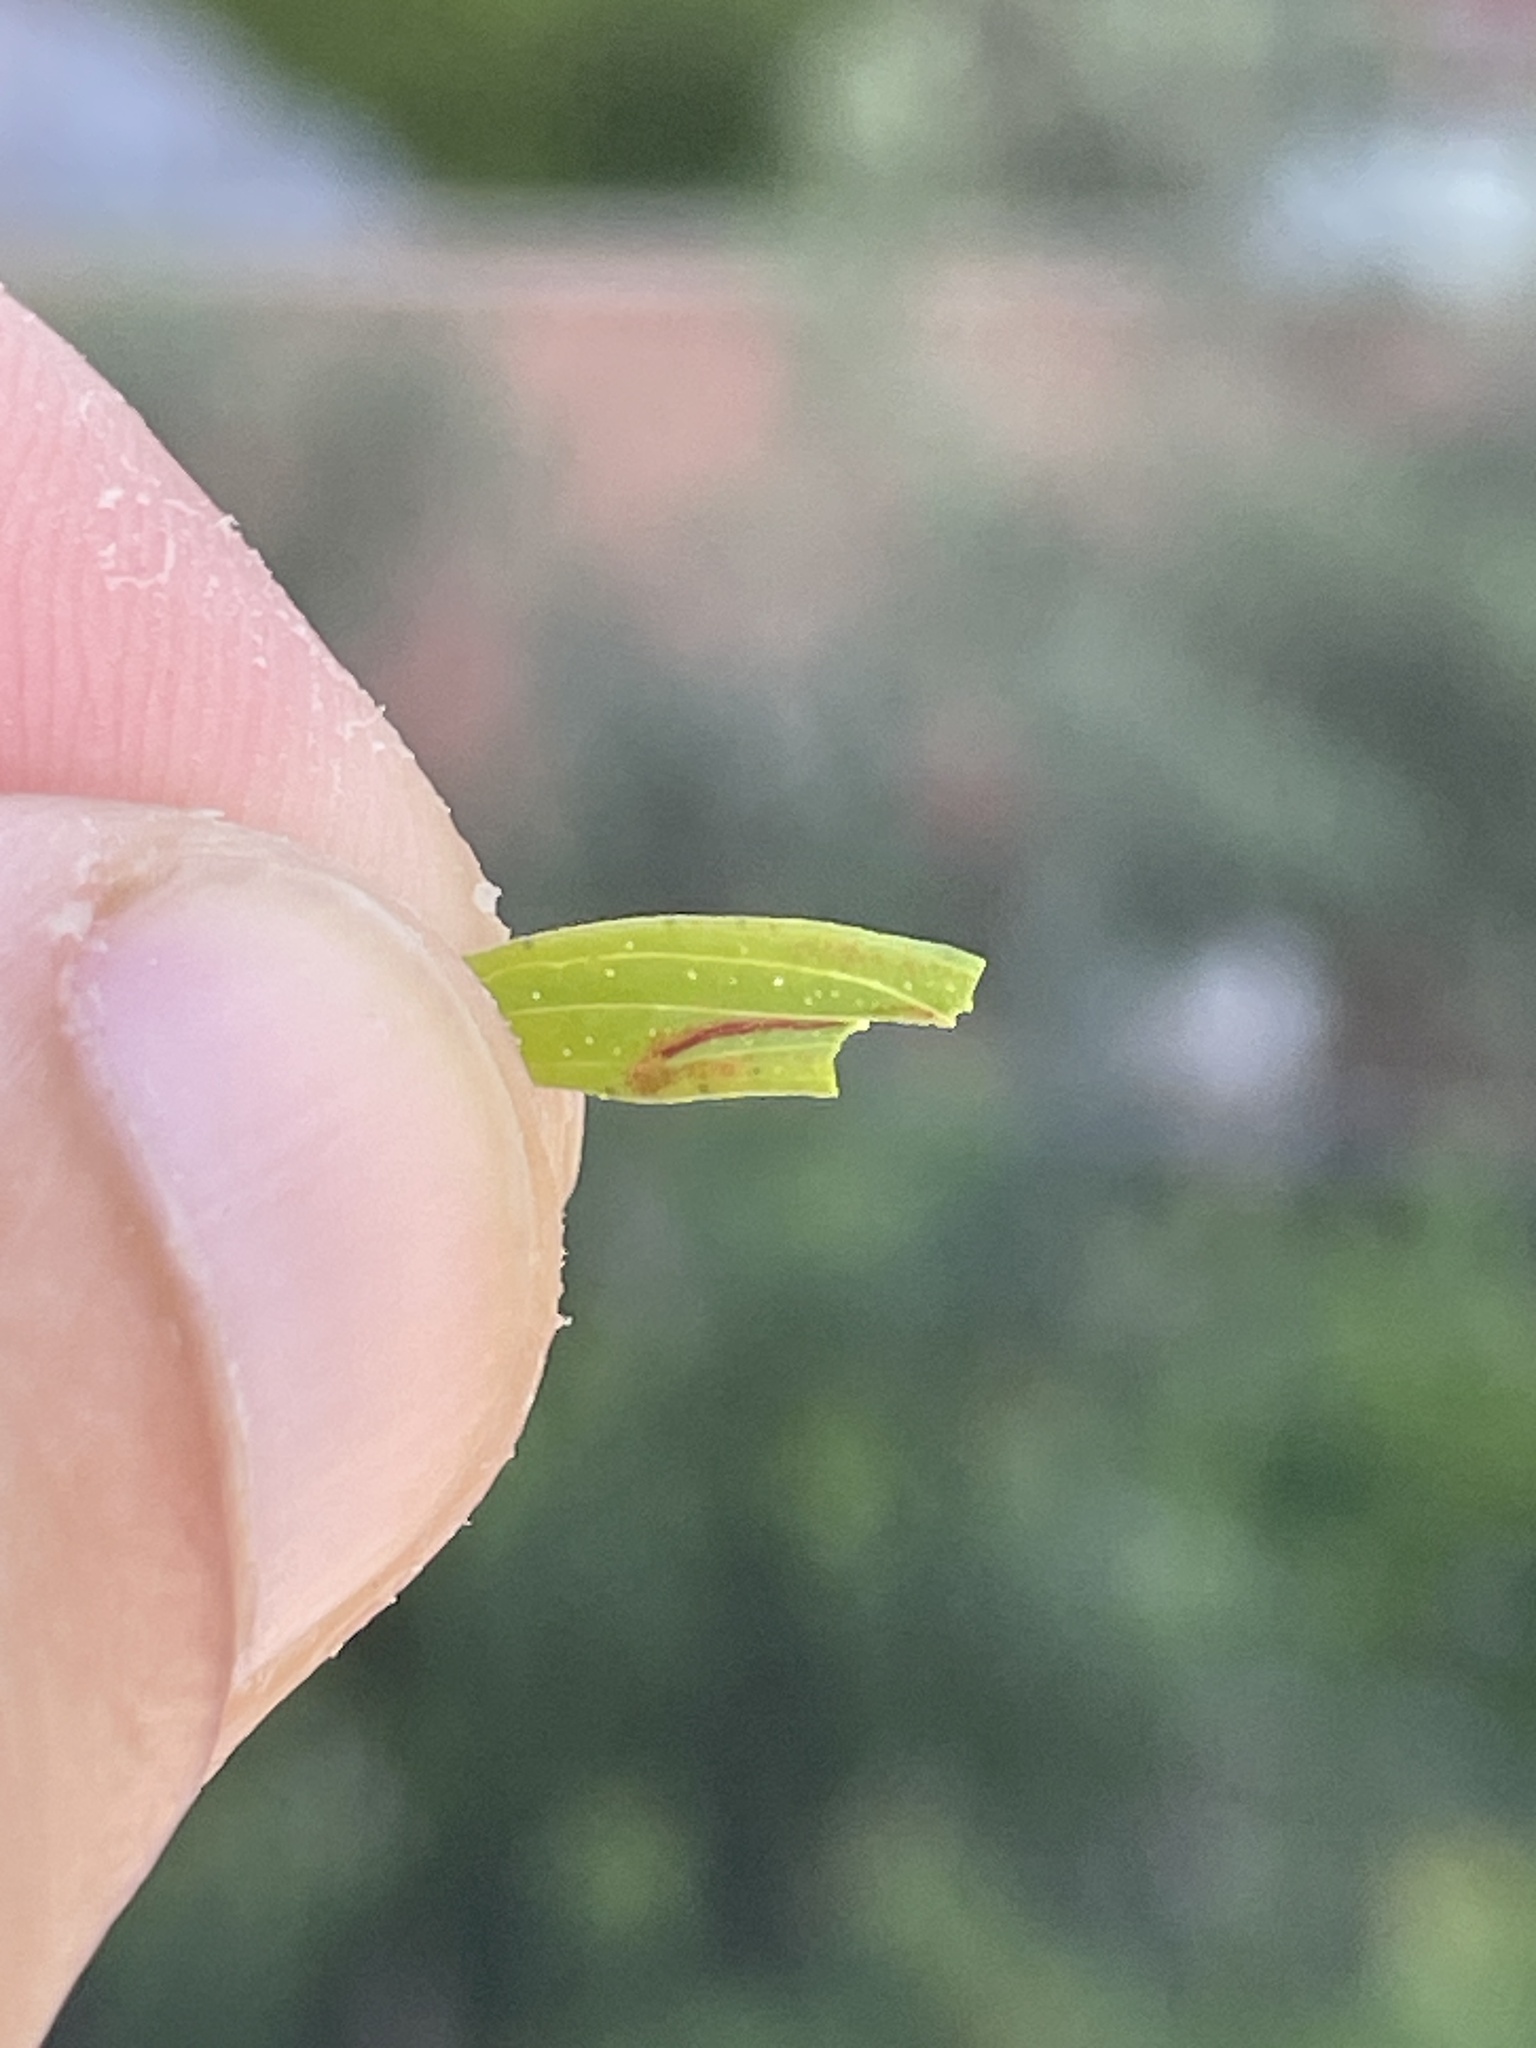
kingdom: Plantae
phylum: Tracheophyta
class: Magnoliopsida
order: Malpighiales
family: Hypericaceae
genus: Hypericum
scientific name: Hypericum perforatum
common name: Common st. johnswort
